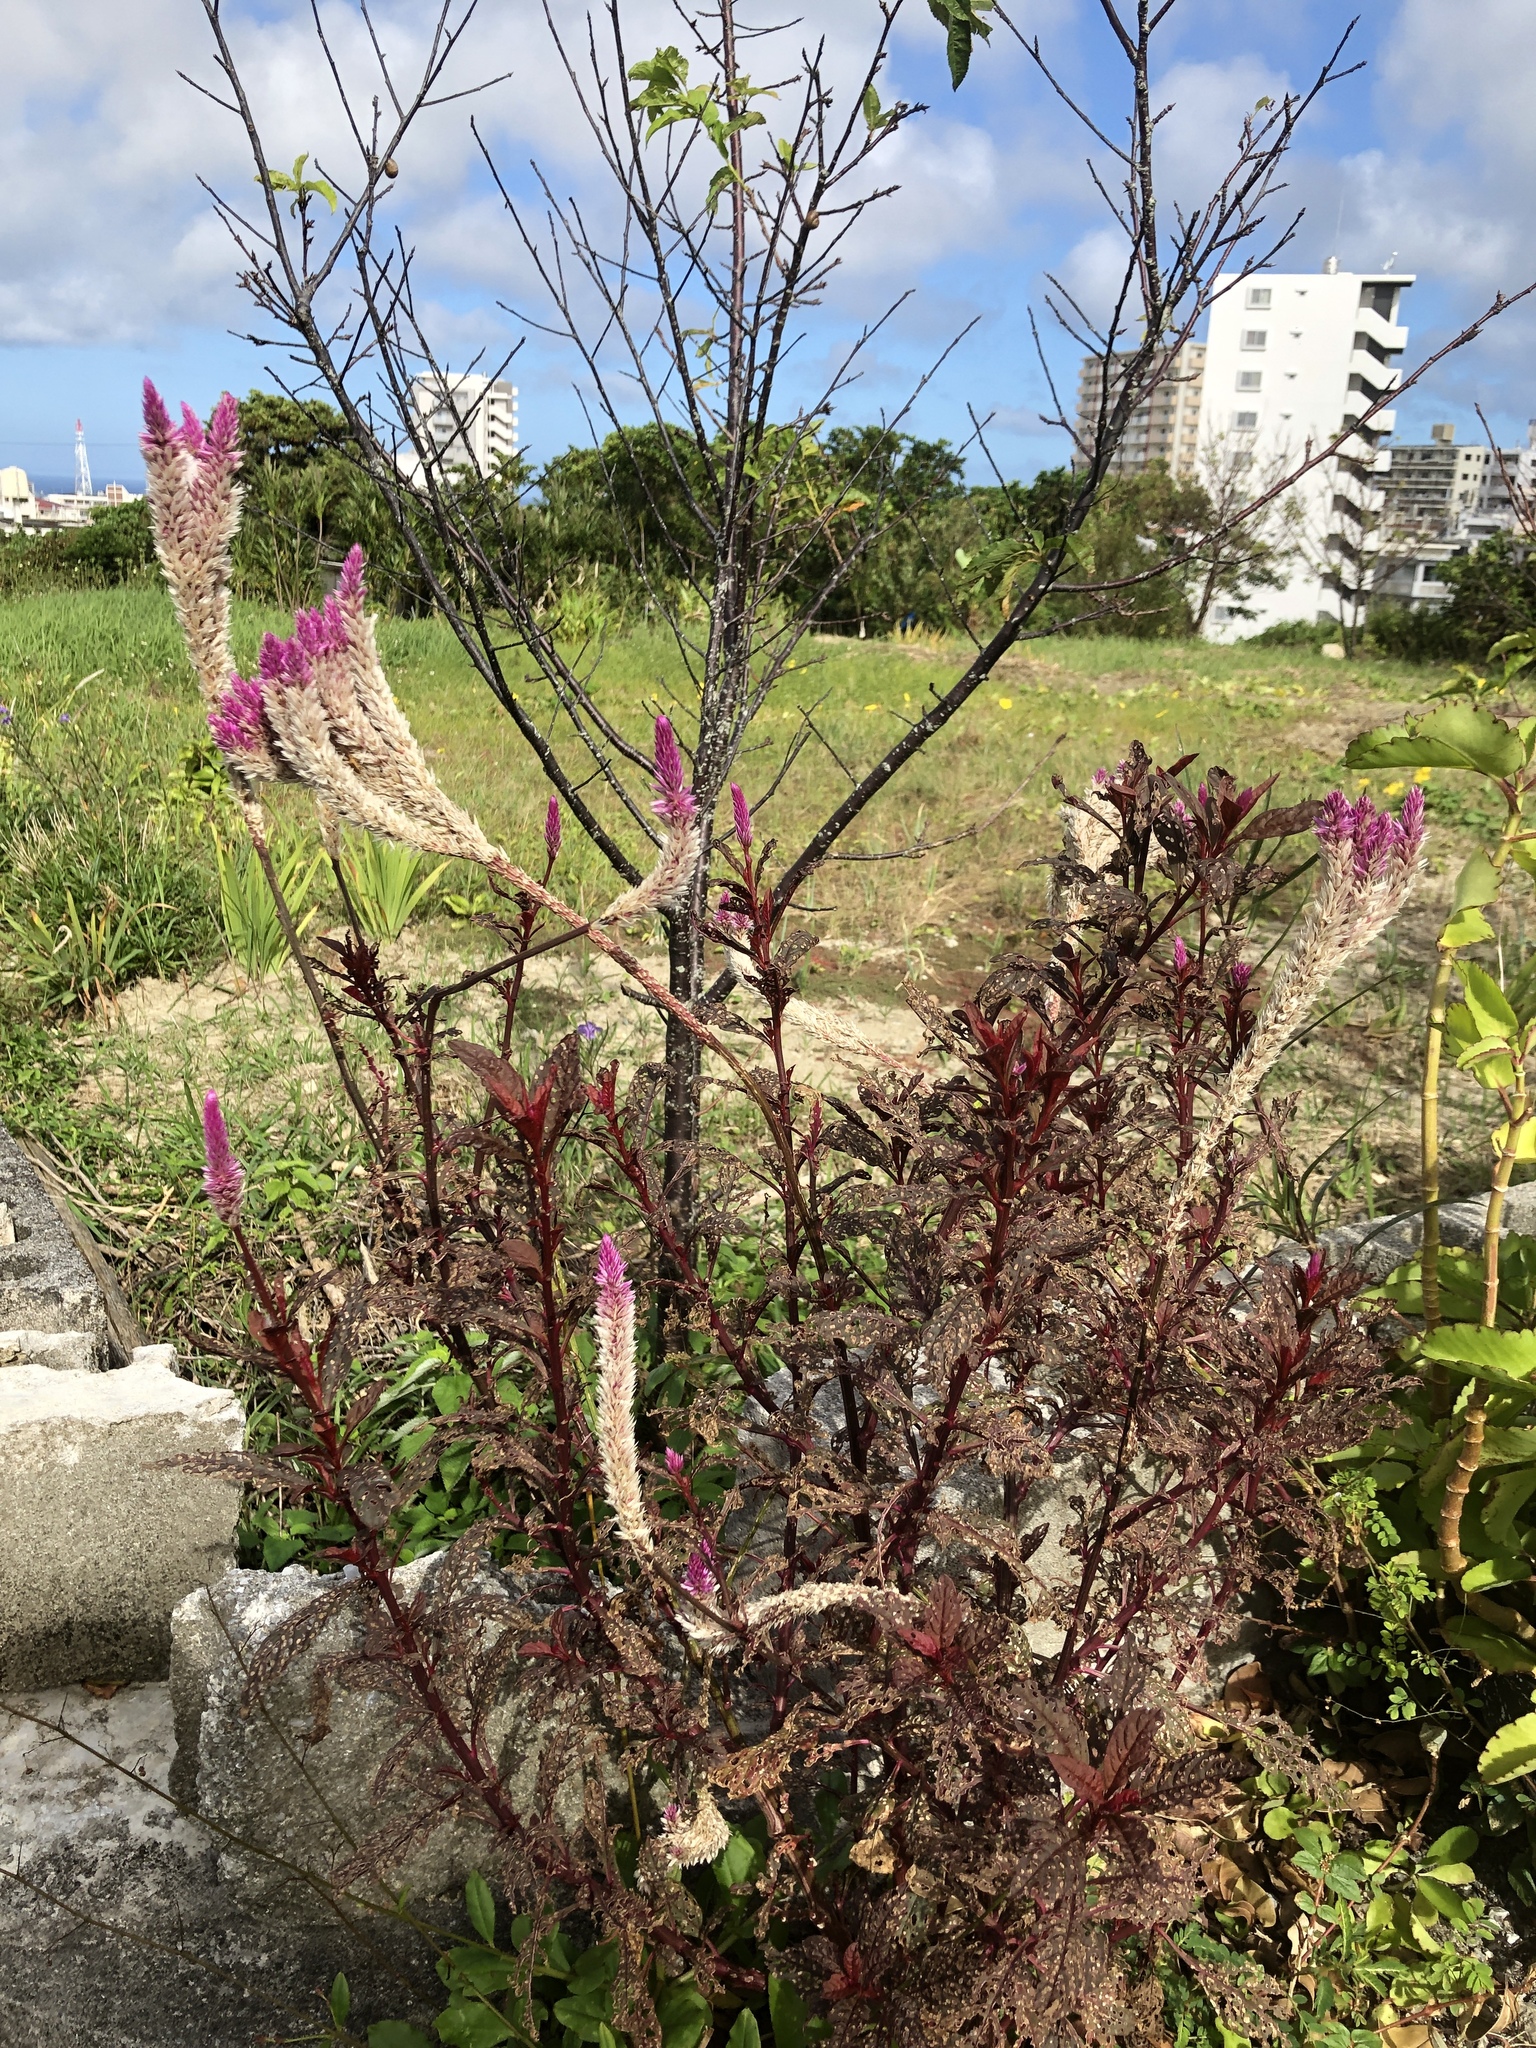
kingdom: Plantae
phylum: Tracheophyta
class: Magnoliopsida
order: Caryophyllales
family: Amaranthaceae
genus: Celosia
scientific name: Celosia argentea
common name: Feather cockscomb
